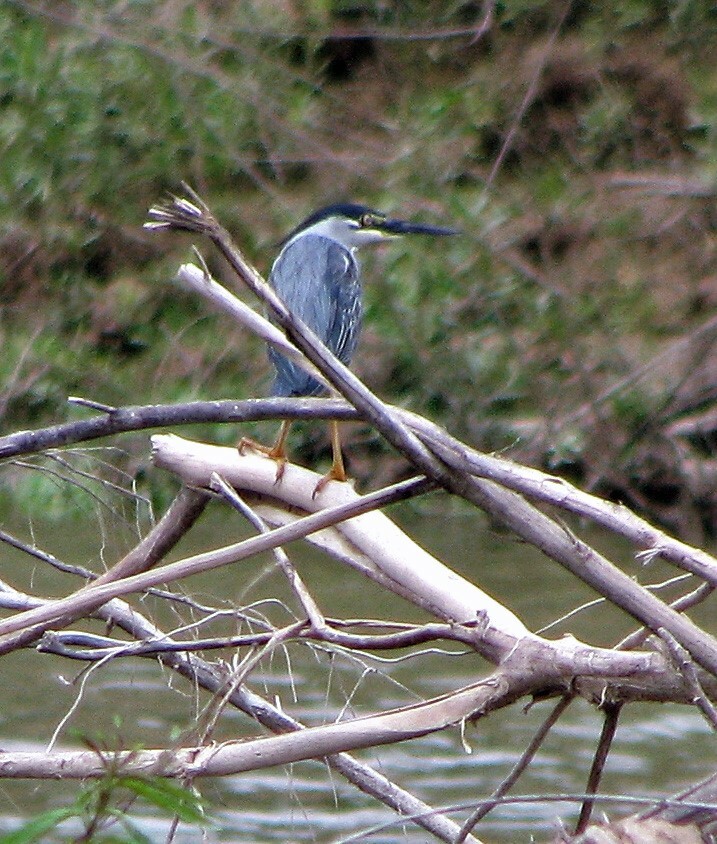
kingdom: Animalia
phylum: Chordata
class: Aves
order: Pelecaniformes
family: Ardeidae
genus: Butorides
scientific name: Butorides striata
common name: Striated heron
